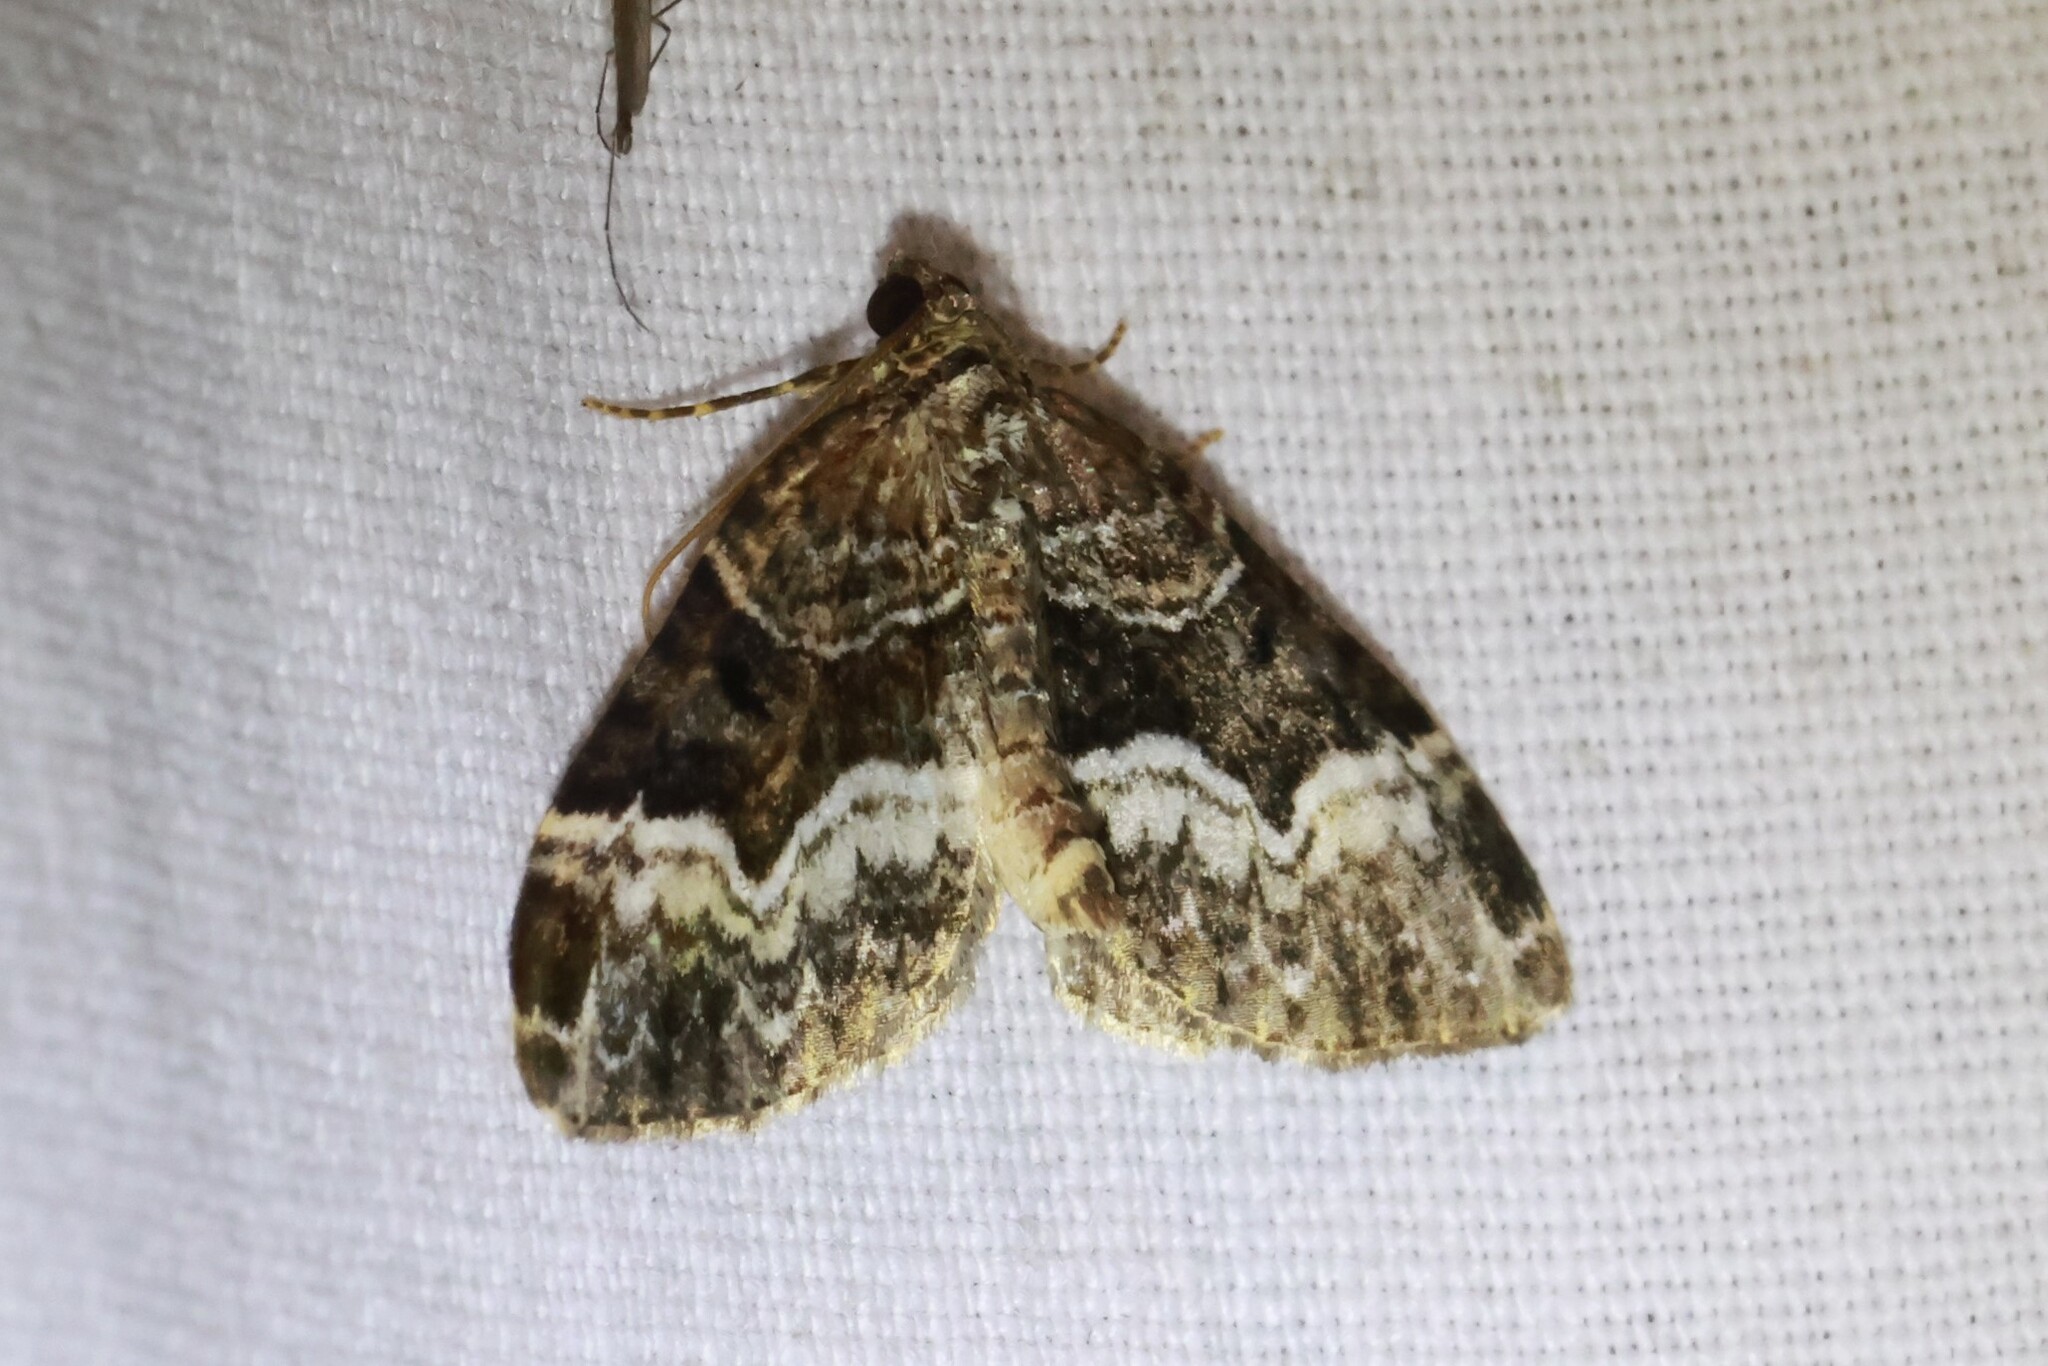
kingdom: Animalia
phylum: Arthropoda
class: Insecta
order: Lepidoptera
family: Geometridae
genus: Euphyia
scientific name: Euphyia intermediata
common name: Sharp-angled carpet
